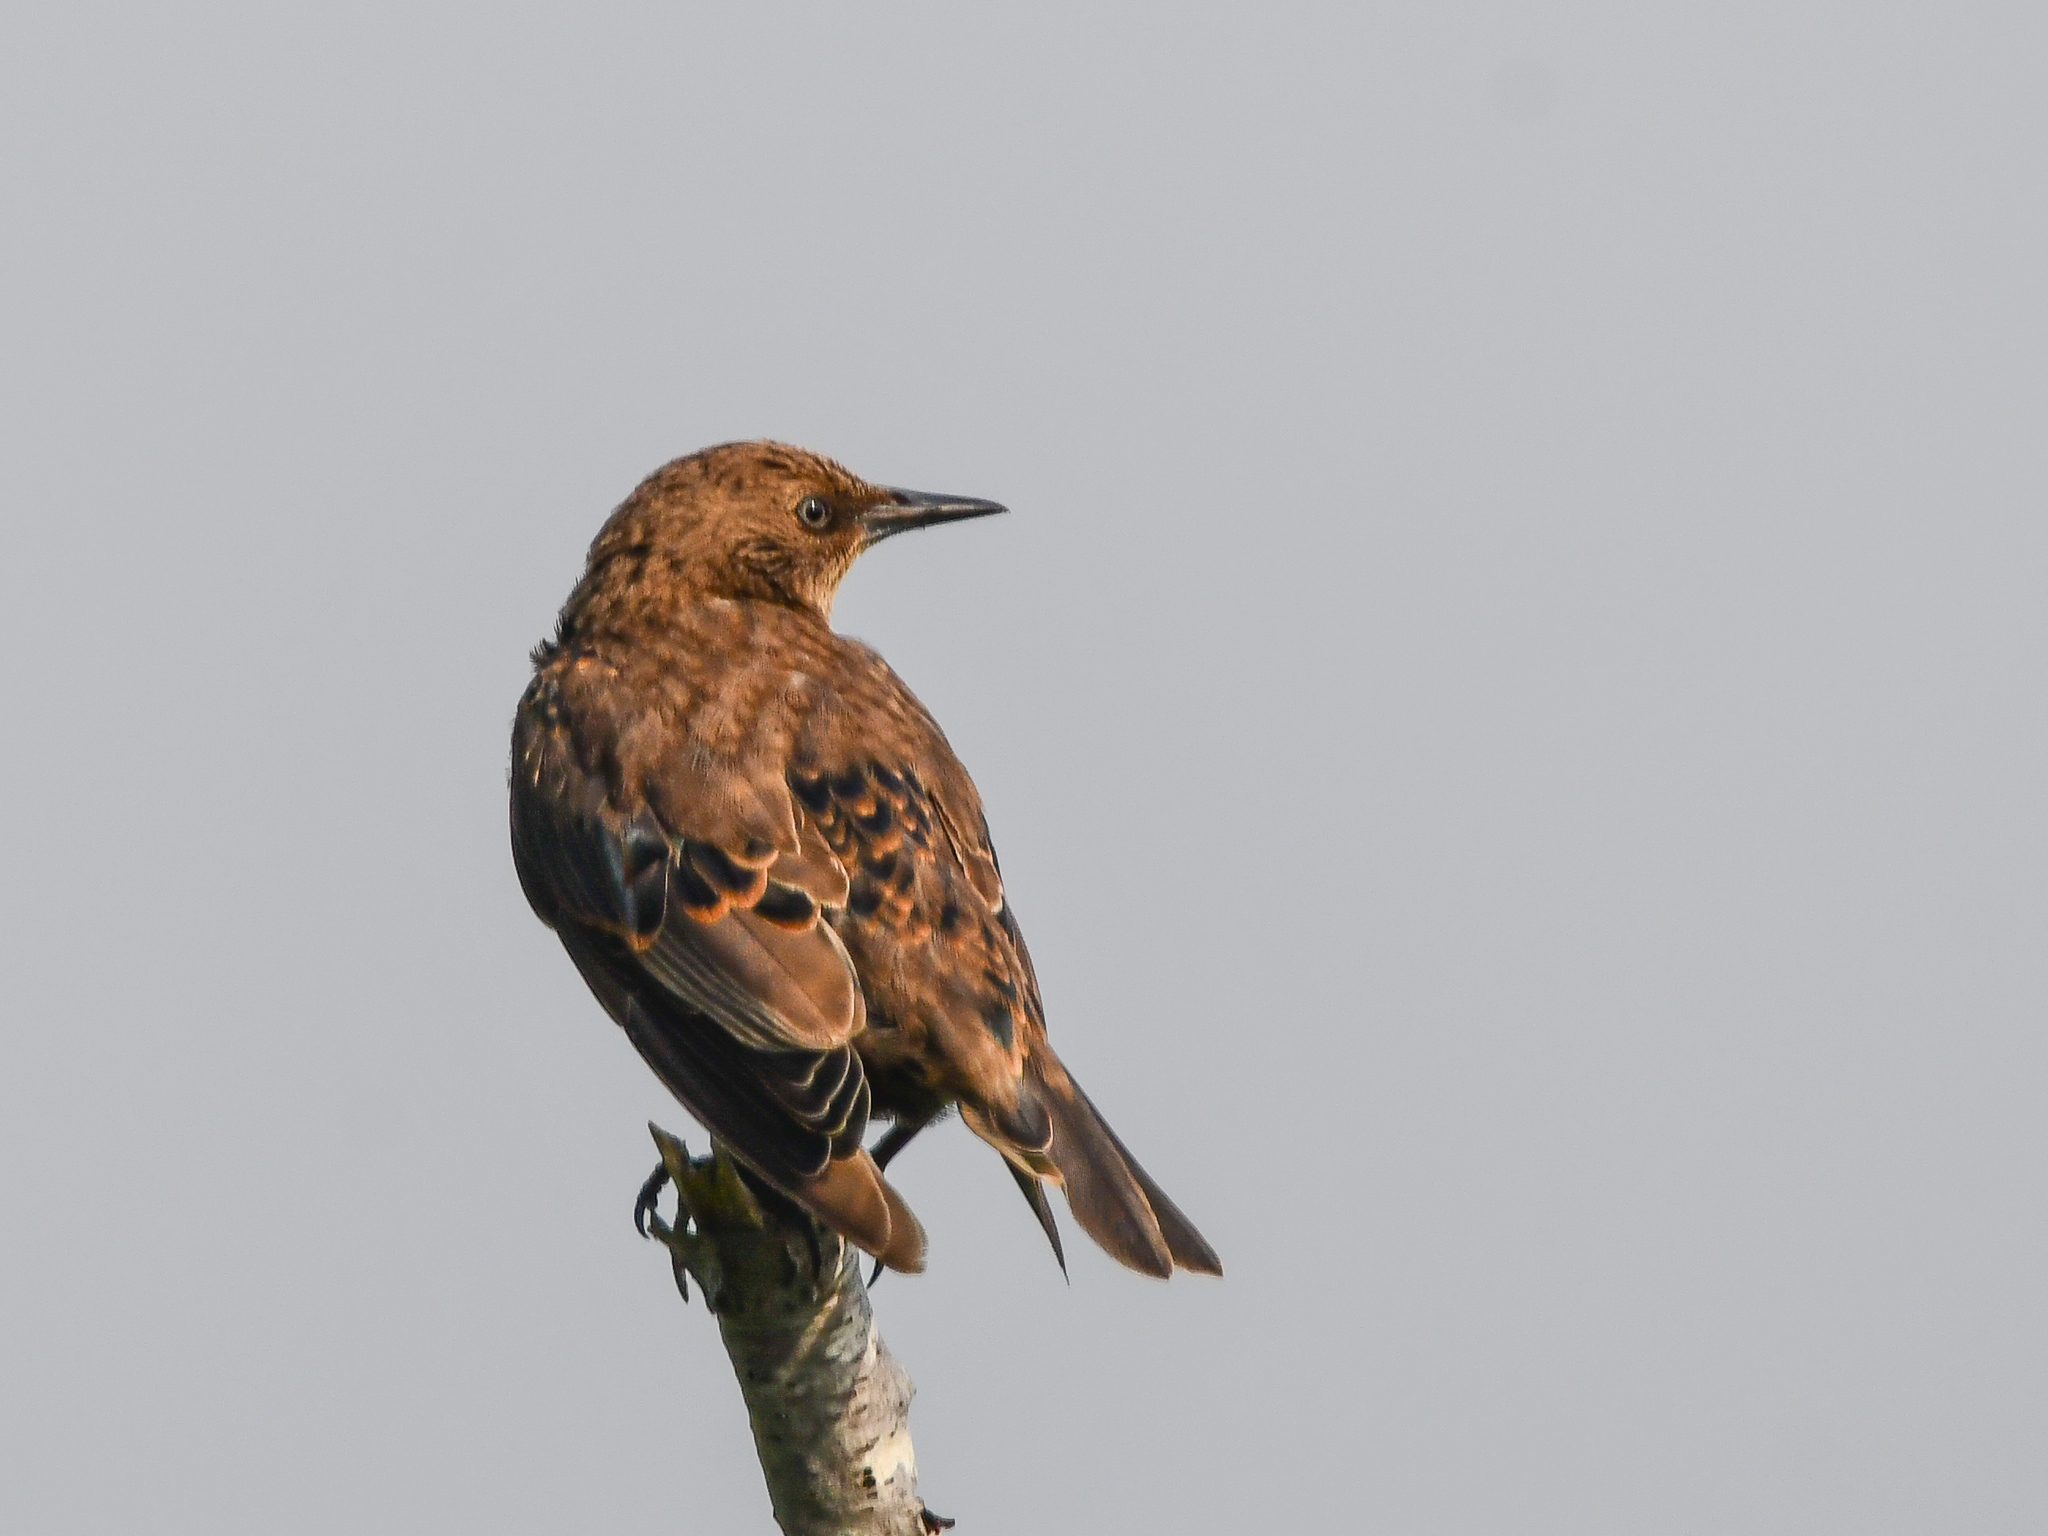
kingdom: Animalia
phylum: Chordata
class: Aves
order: Passeriformes
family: Sturnidae
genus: Sturnus
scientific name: Sturnus vulgaris
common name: Common starling
